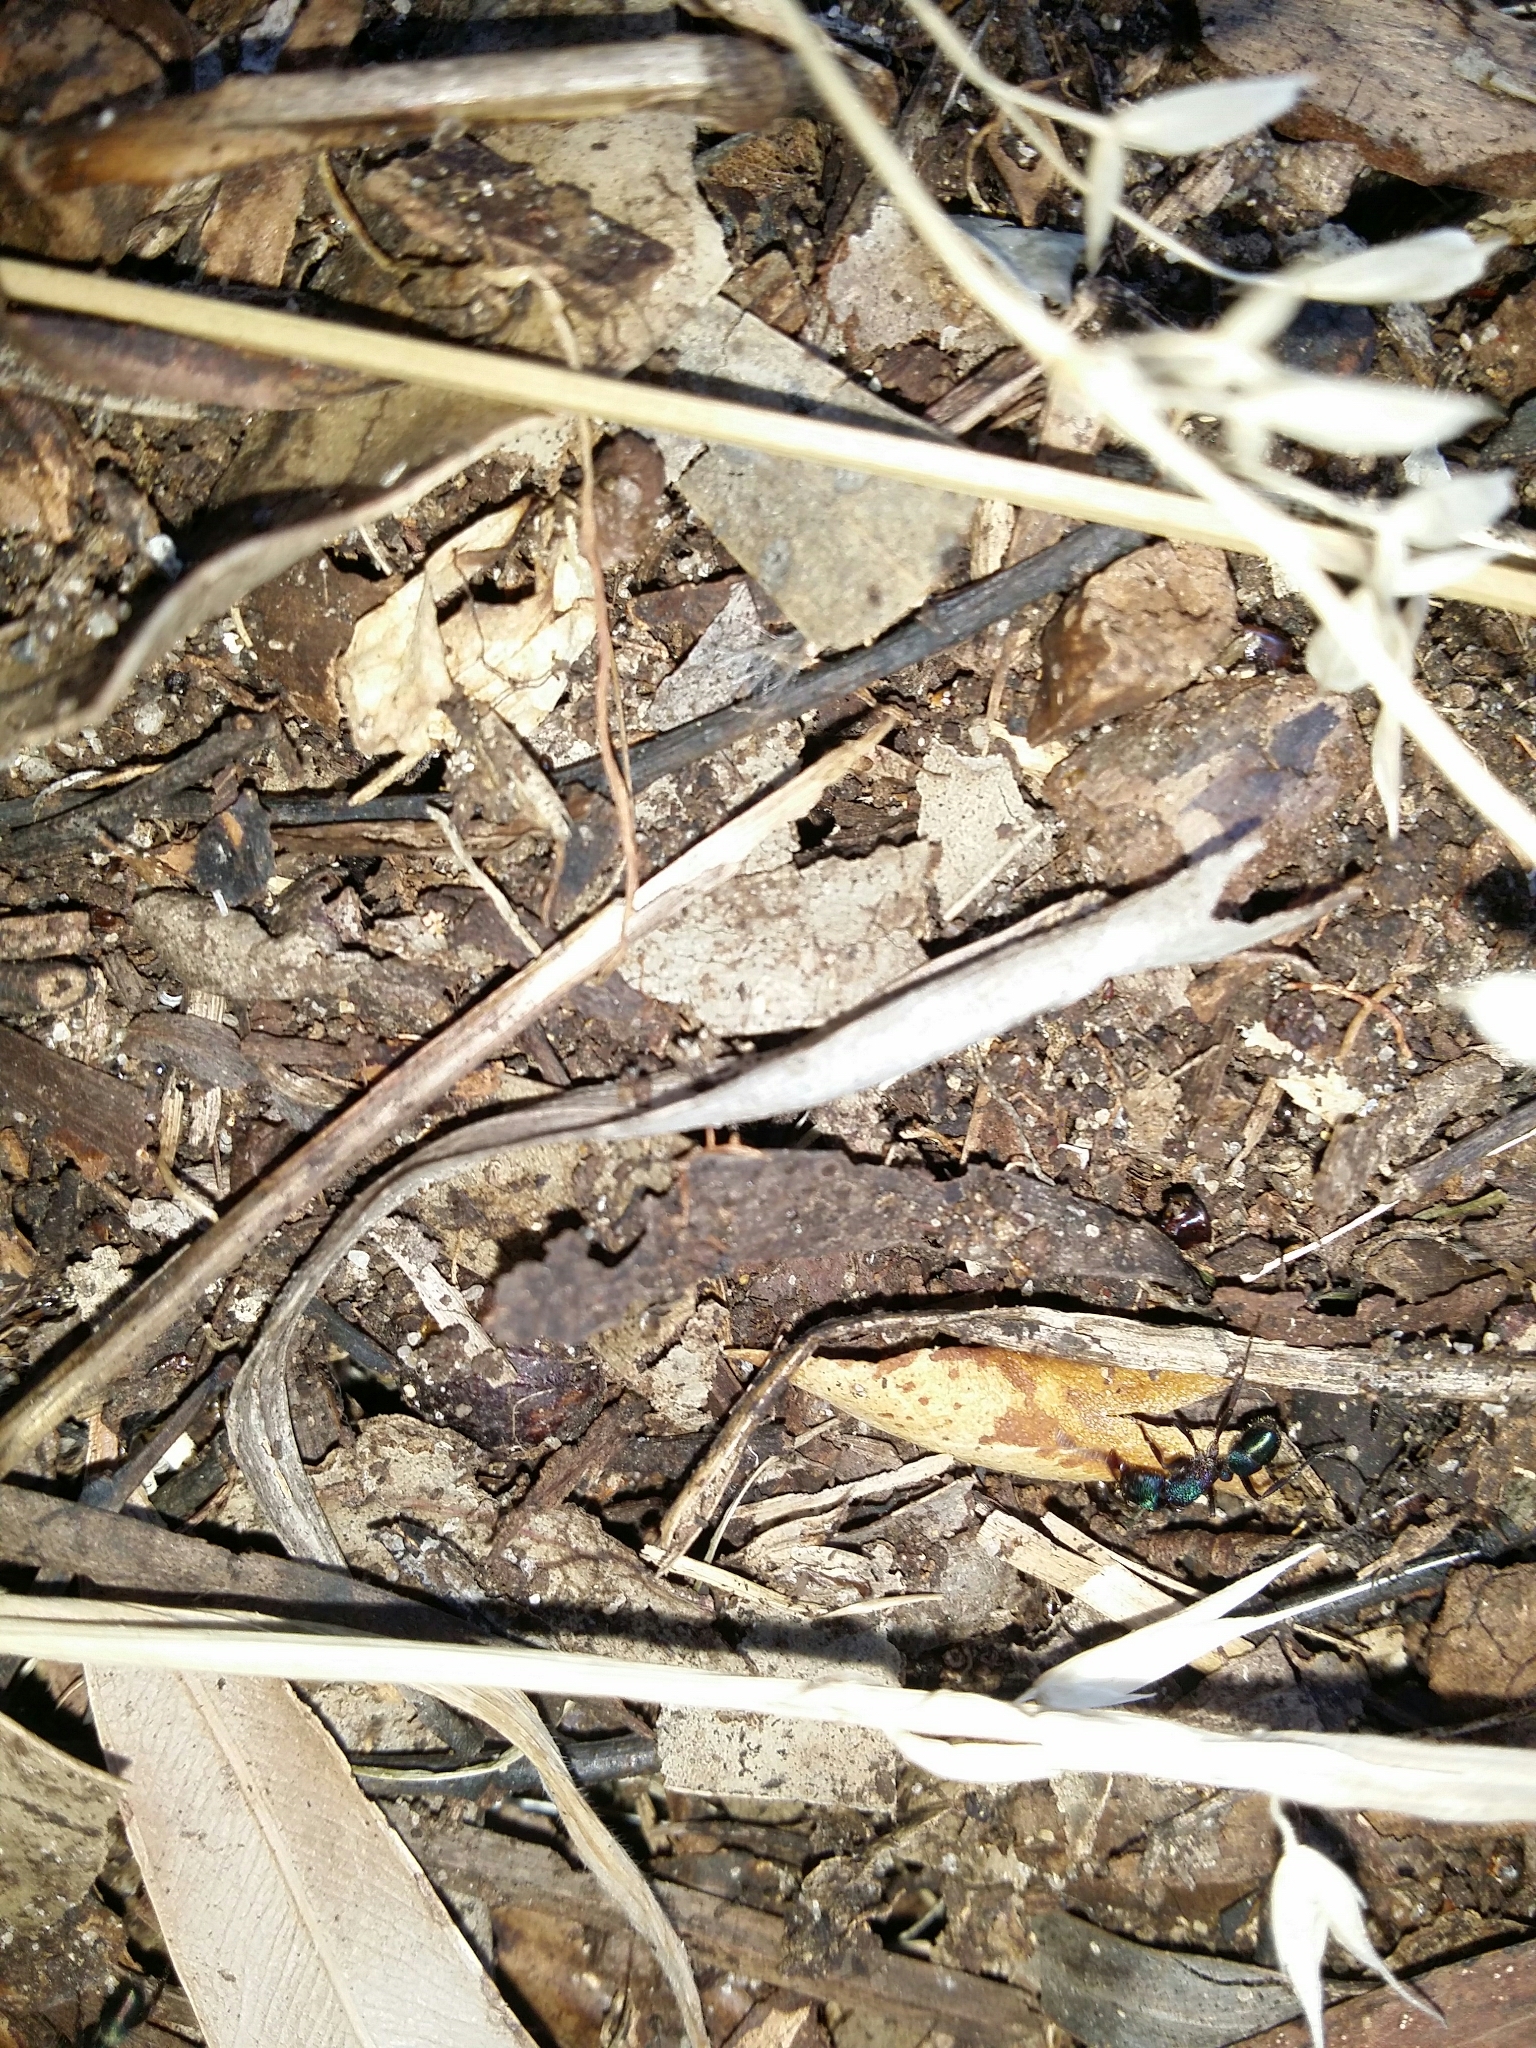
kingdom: Animalia
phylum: Arthropoda
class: Insecta
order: Hymenoptera
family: Formicidae
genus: Rhytidoponera
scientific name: Rhytidoponera metallica
